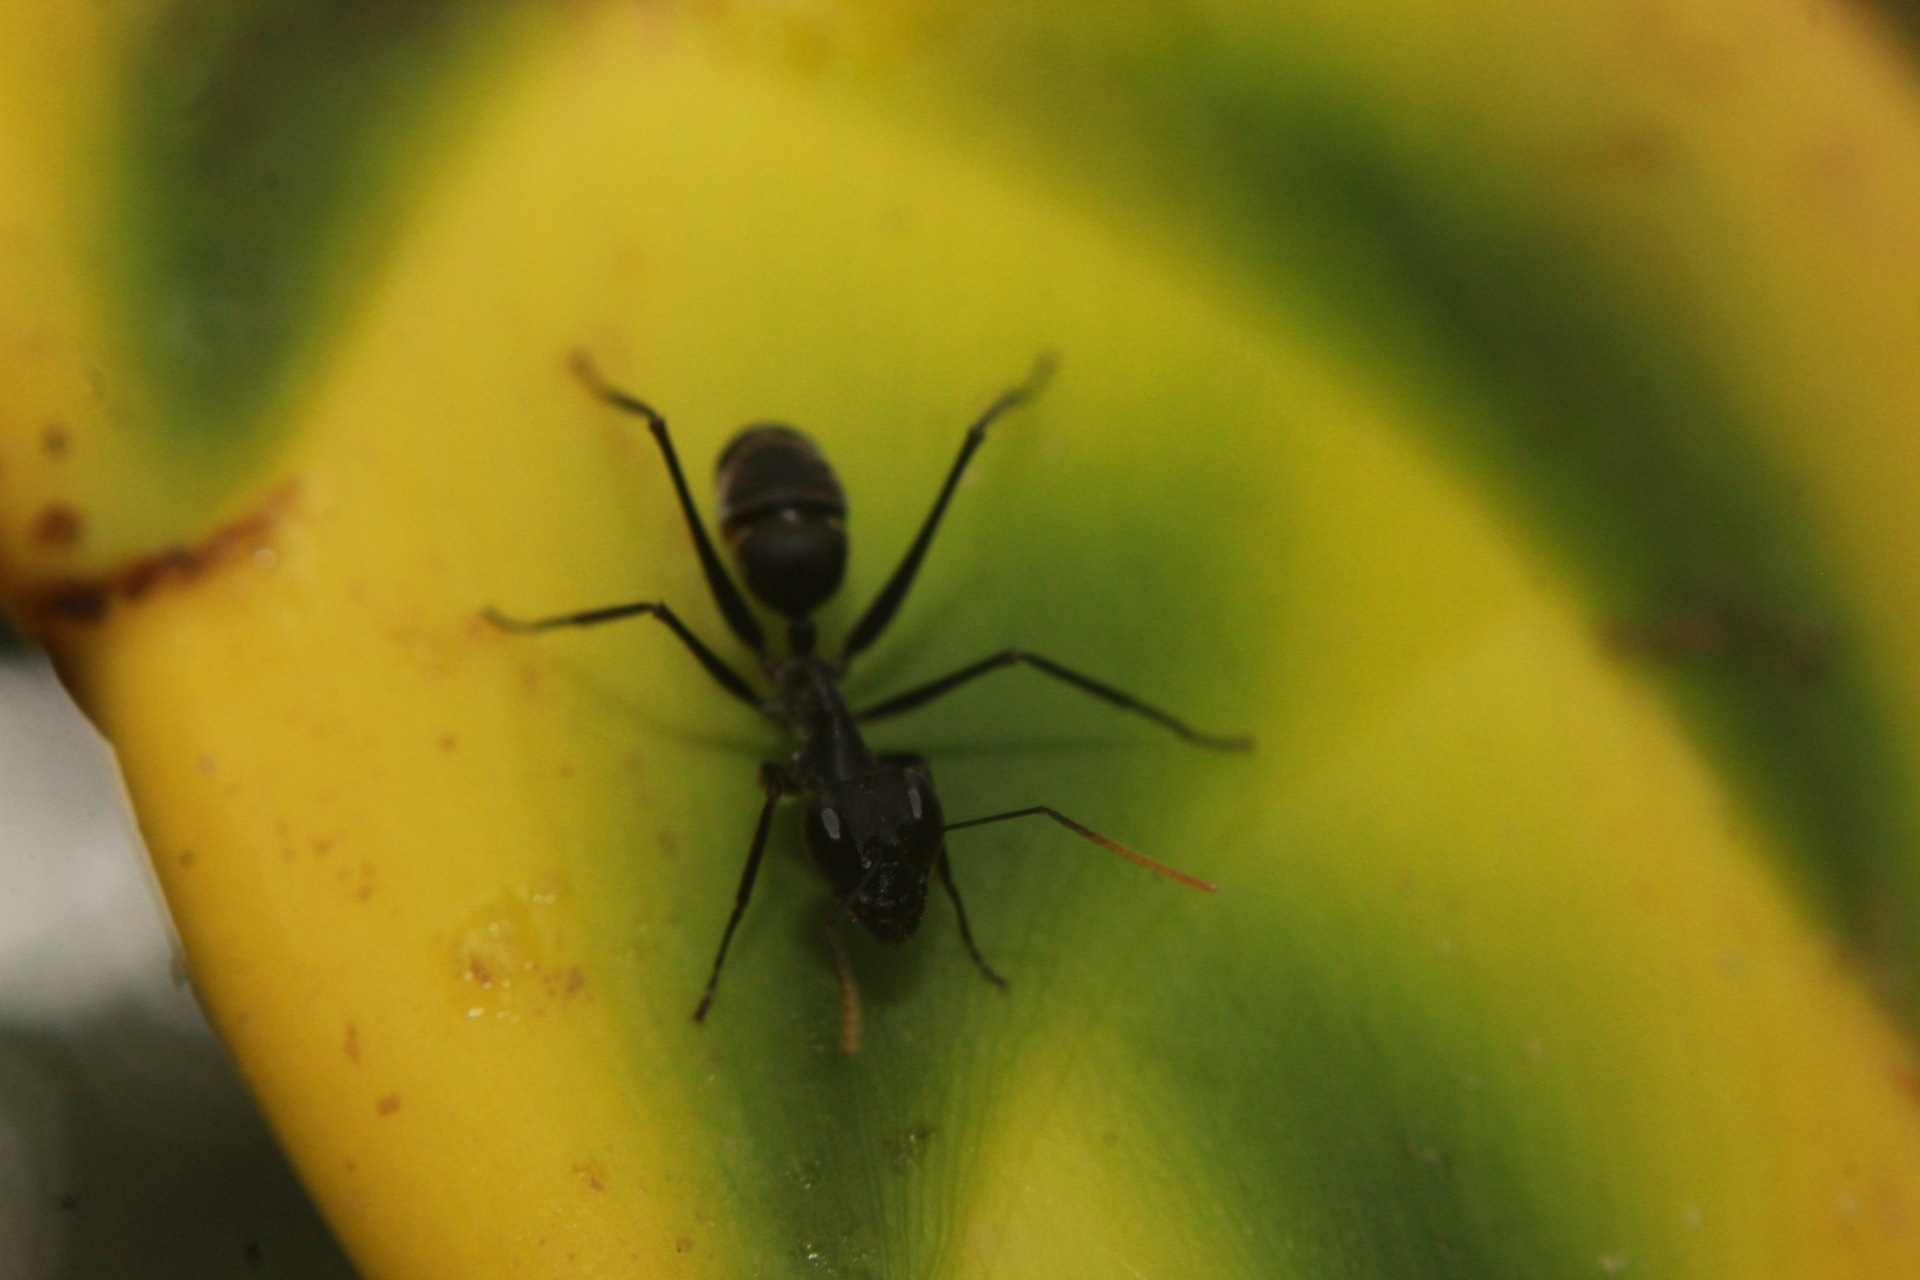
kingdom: Animalia
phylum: Arthropoda
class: Insecta
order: Hymenoptera
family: Formicidae
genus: Gigantiops
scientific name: Gigantiops destructor
